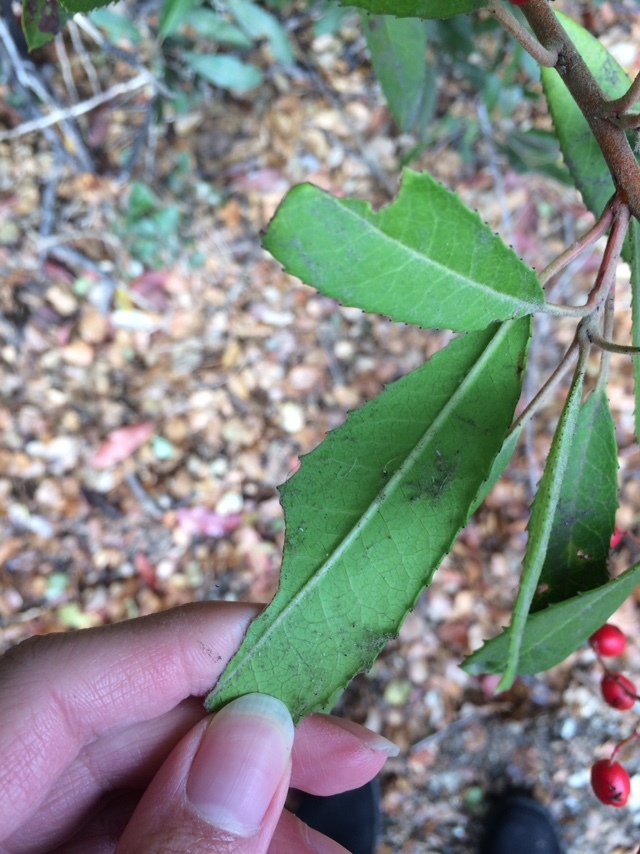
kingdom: Plantae
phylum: Tracheophyta
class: Magnoliopsida
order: Rosales
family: Rosaceae
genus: Heteromeles
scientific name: Heteromeles arbutifolia
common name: California-holly
